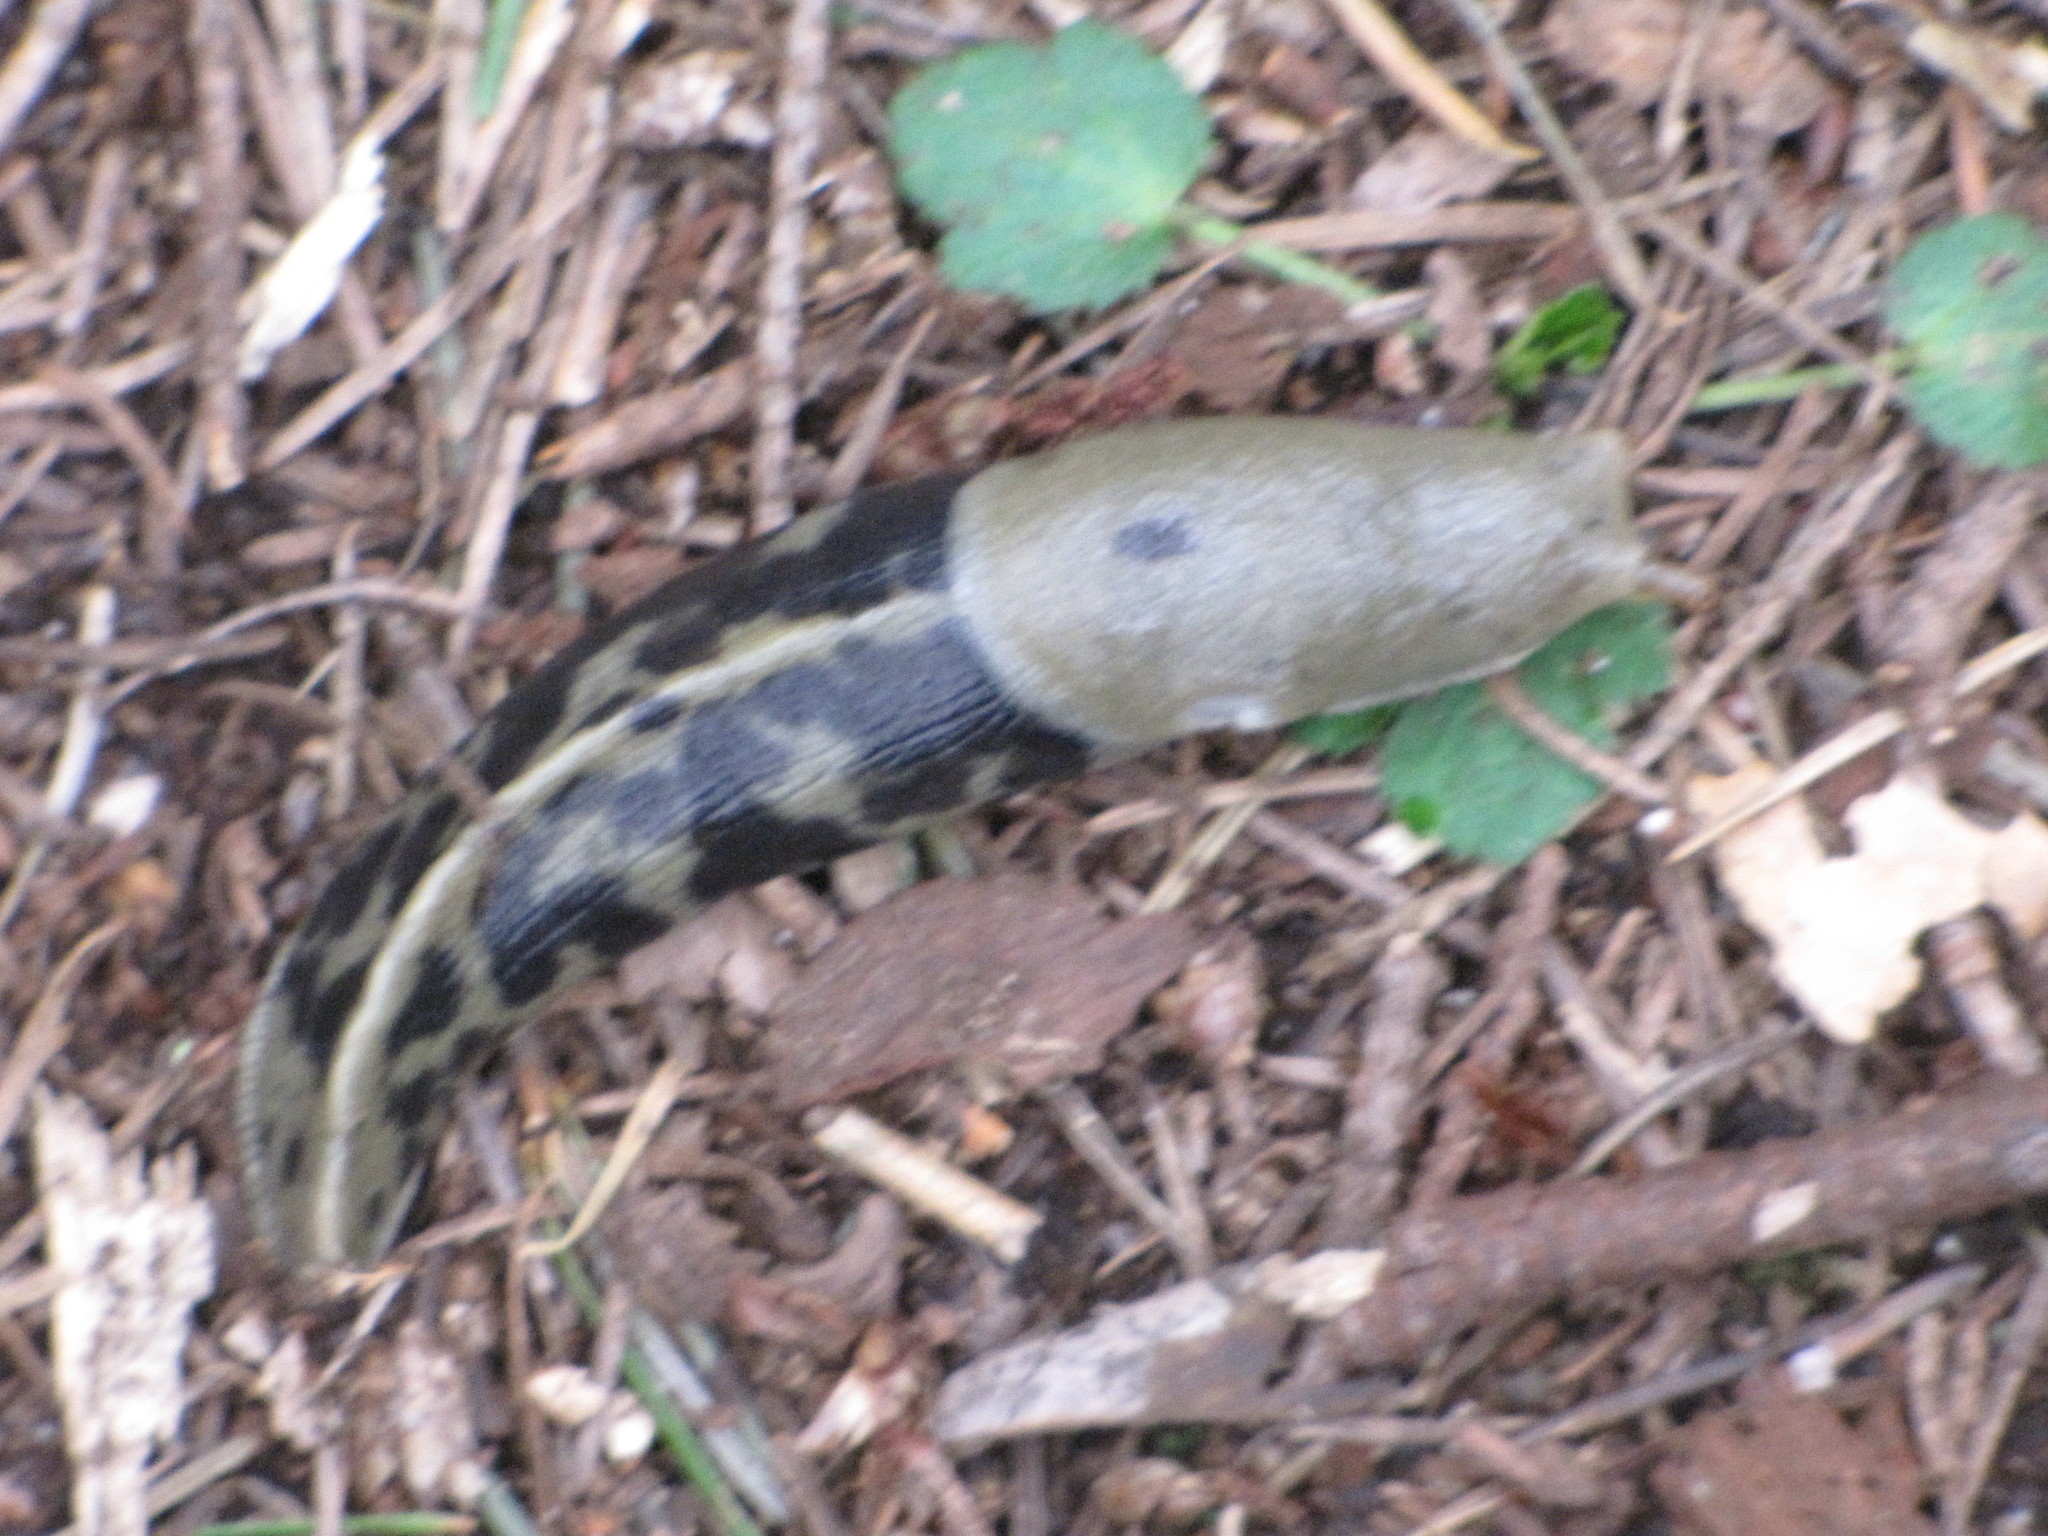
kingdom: Animalia
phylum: Mollusca
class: Gastropoda
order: Stylommatophora
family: Ariolimacidae
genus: Ariolimax
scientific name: Ariolimax columbianus
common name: Pacific banana slug
